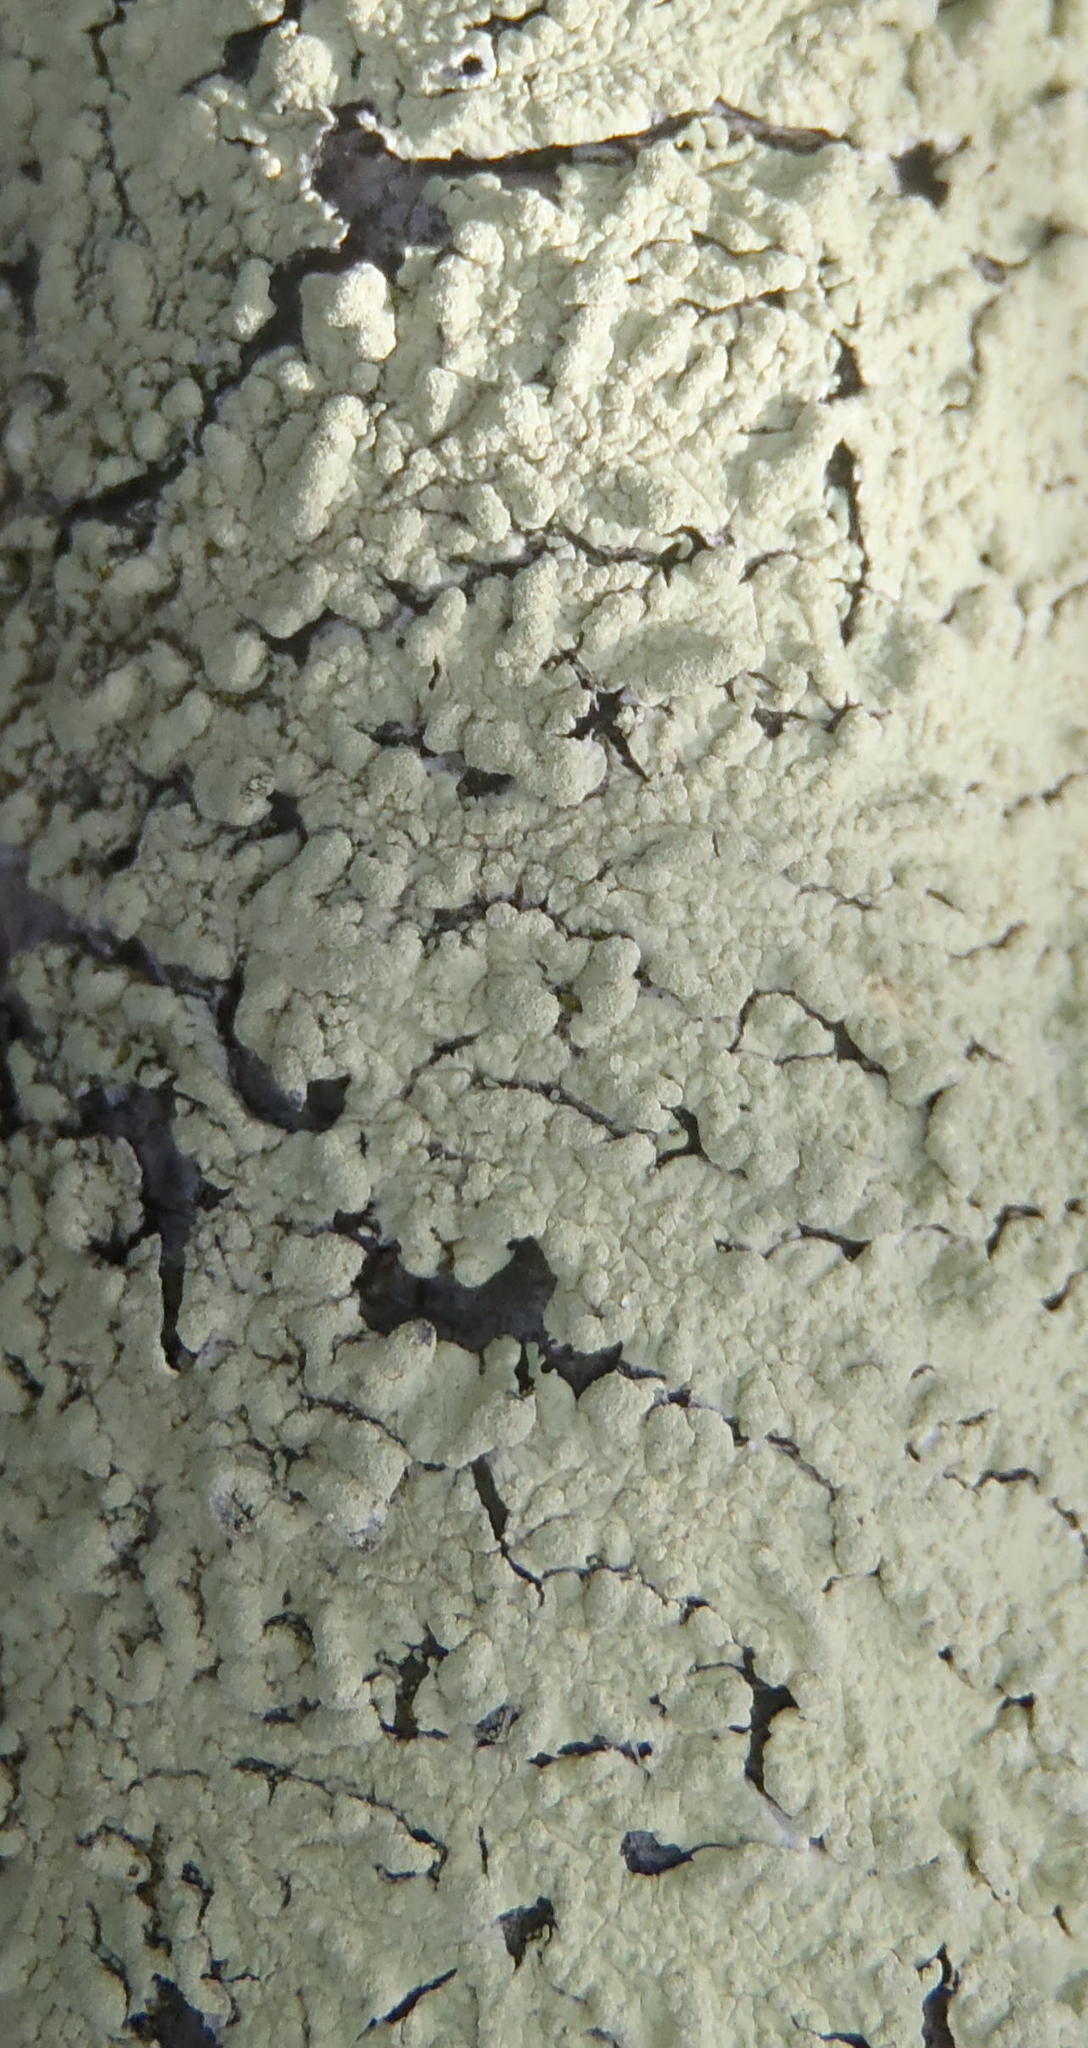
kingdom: Fungi
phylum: Ascomycota
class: Lecanoromycetes
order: Lecanorales
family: Parmeliaceae
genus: Flavoparmelia
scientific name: Flavoparmelia soredians
